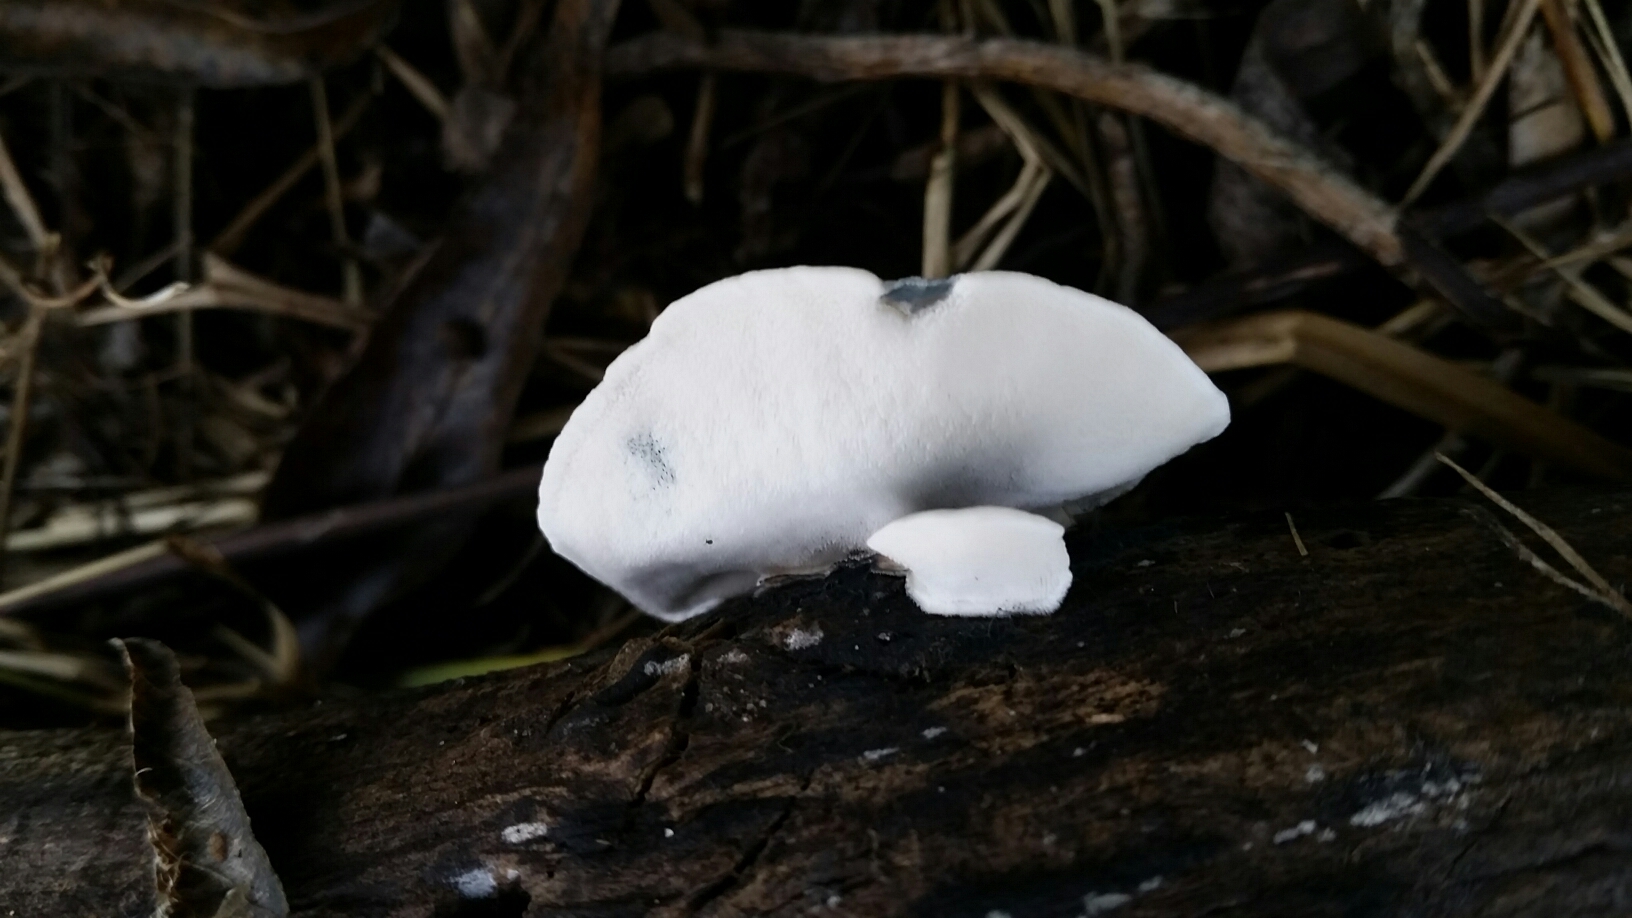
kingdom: Fungi
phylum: Basidiomycota
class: Agaricomycetes
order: Polyporales
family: Polyporaceae
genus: Cyanosporus
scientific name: Cyanosporus caesius
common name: Blue cheese polypore
